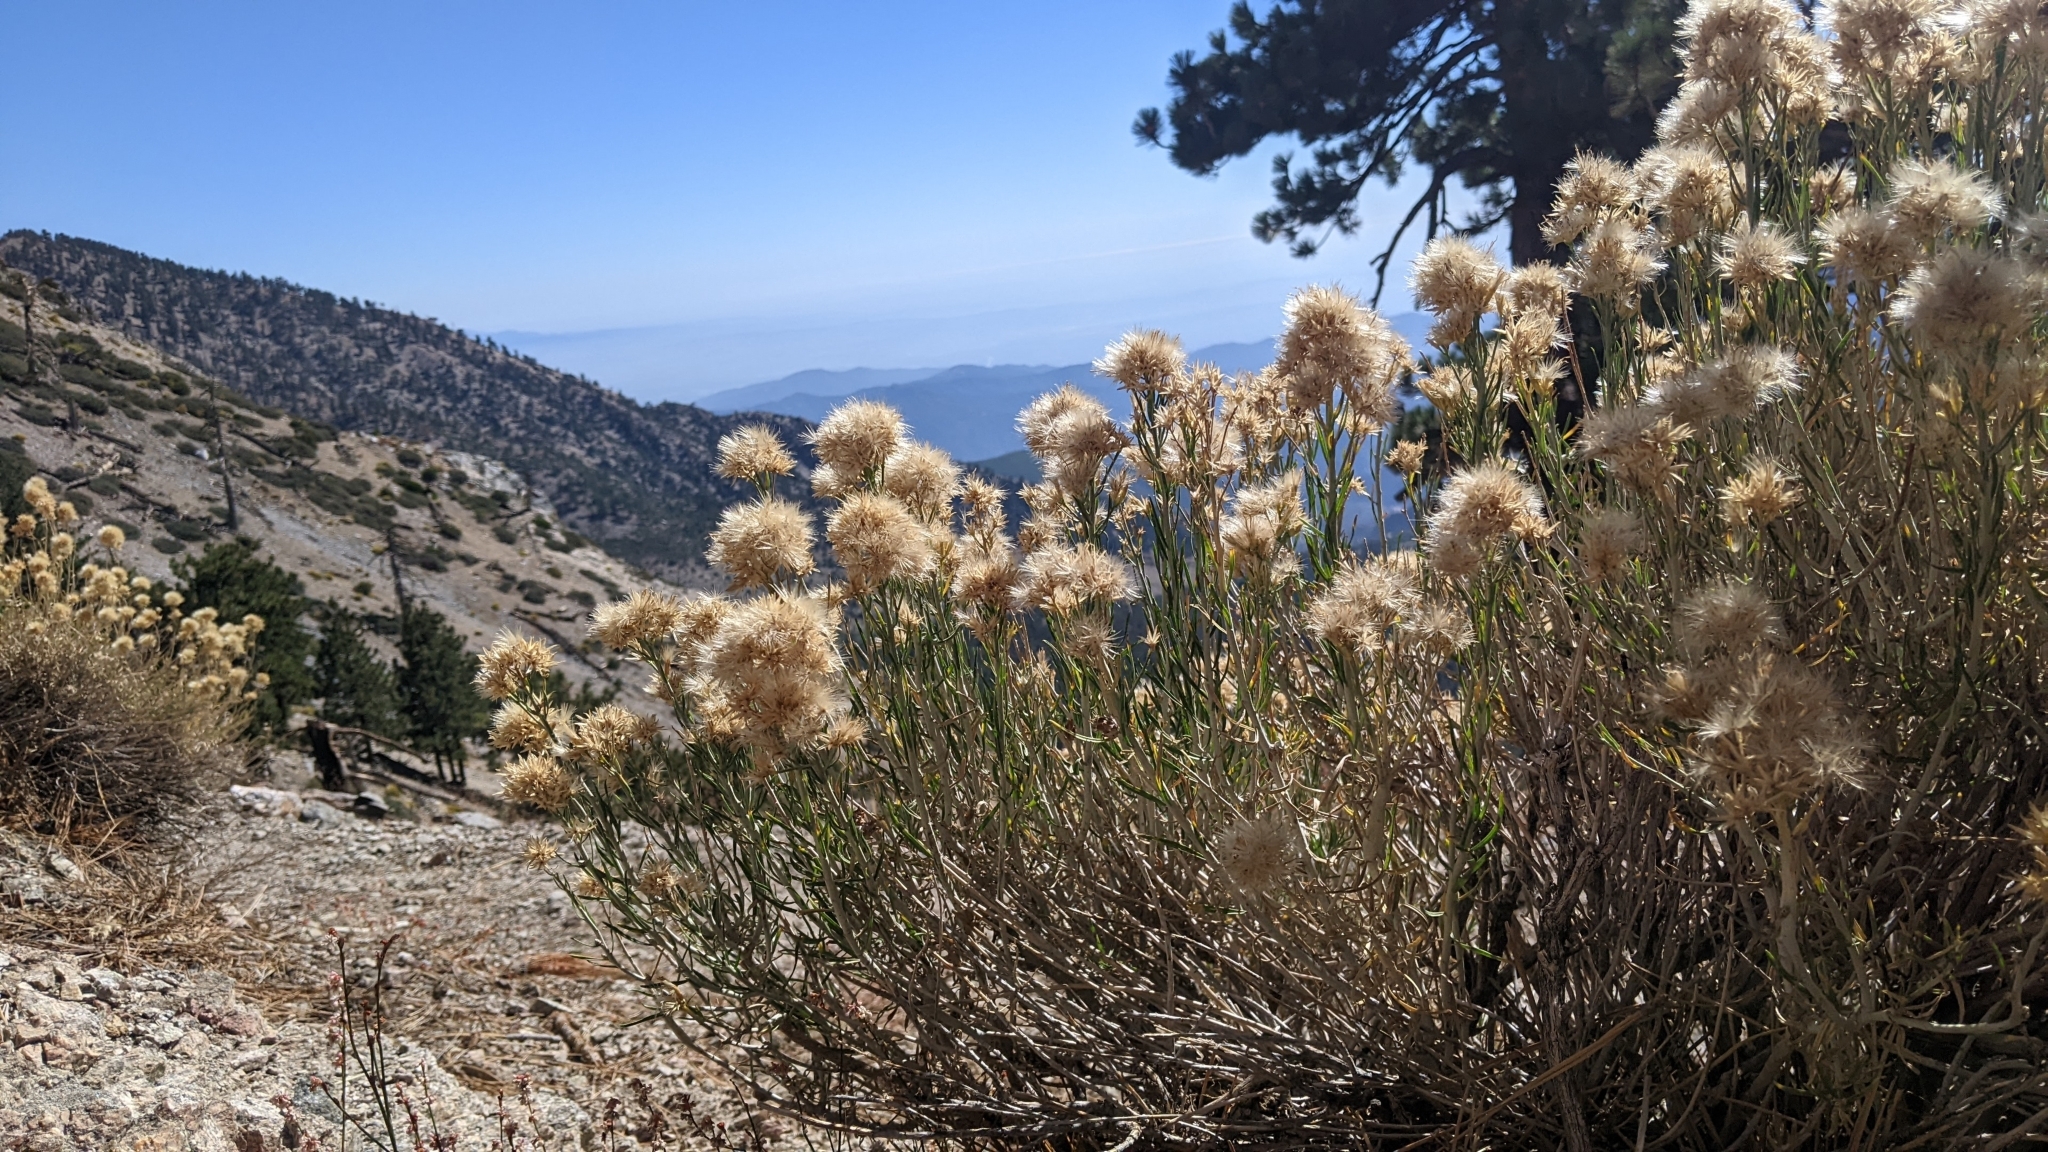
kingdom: Plantae
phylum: Tracheophyta
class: Magnoliopsida
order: Asterales
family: Asteraceae
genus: Ericameria
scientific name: Ericameria nauseosa
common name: Rubber rabbitbrush
